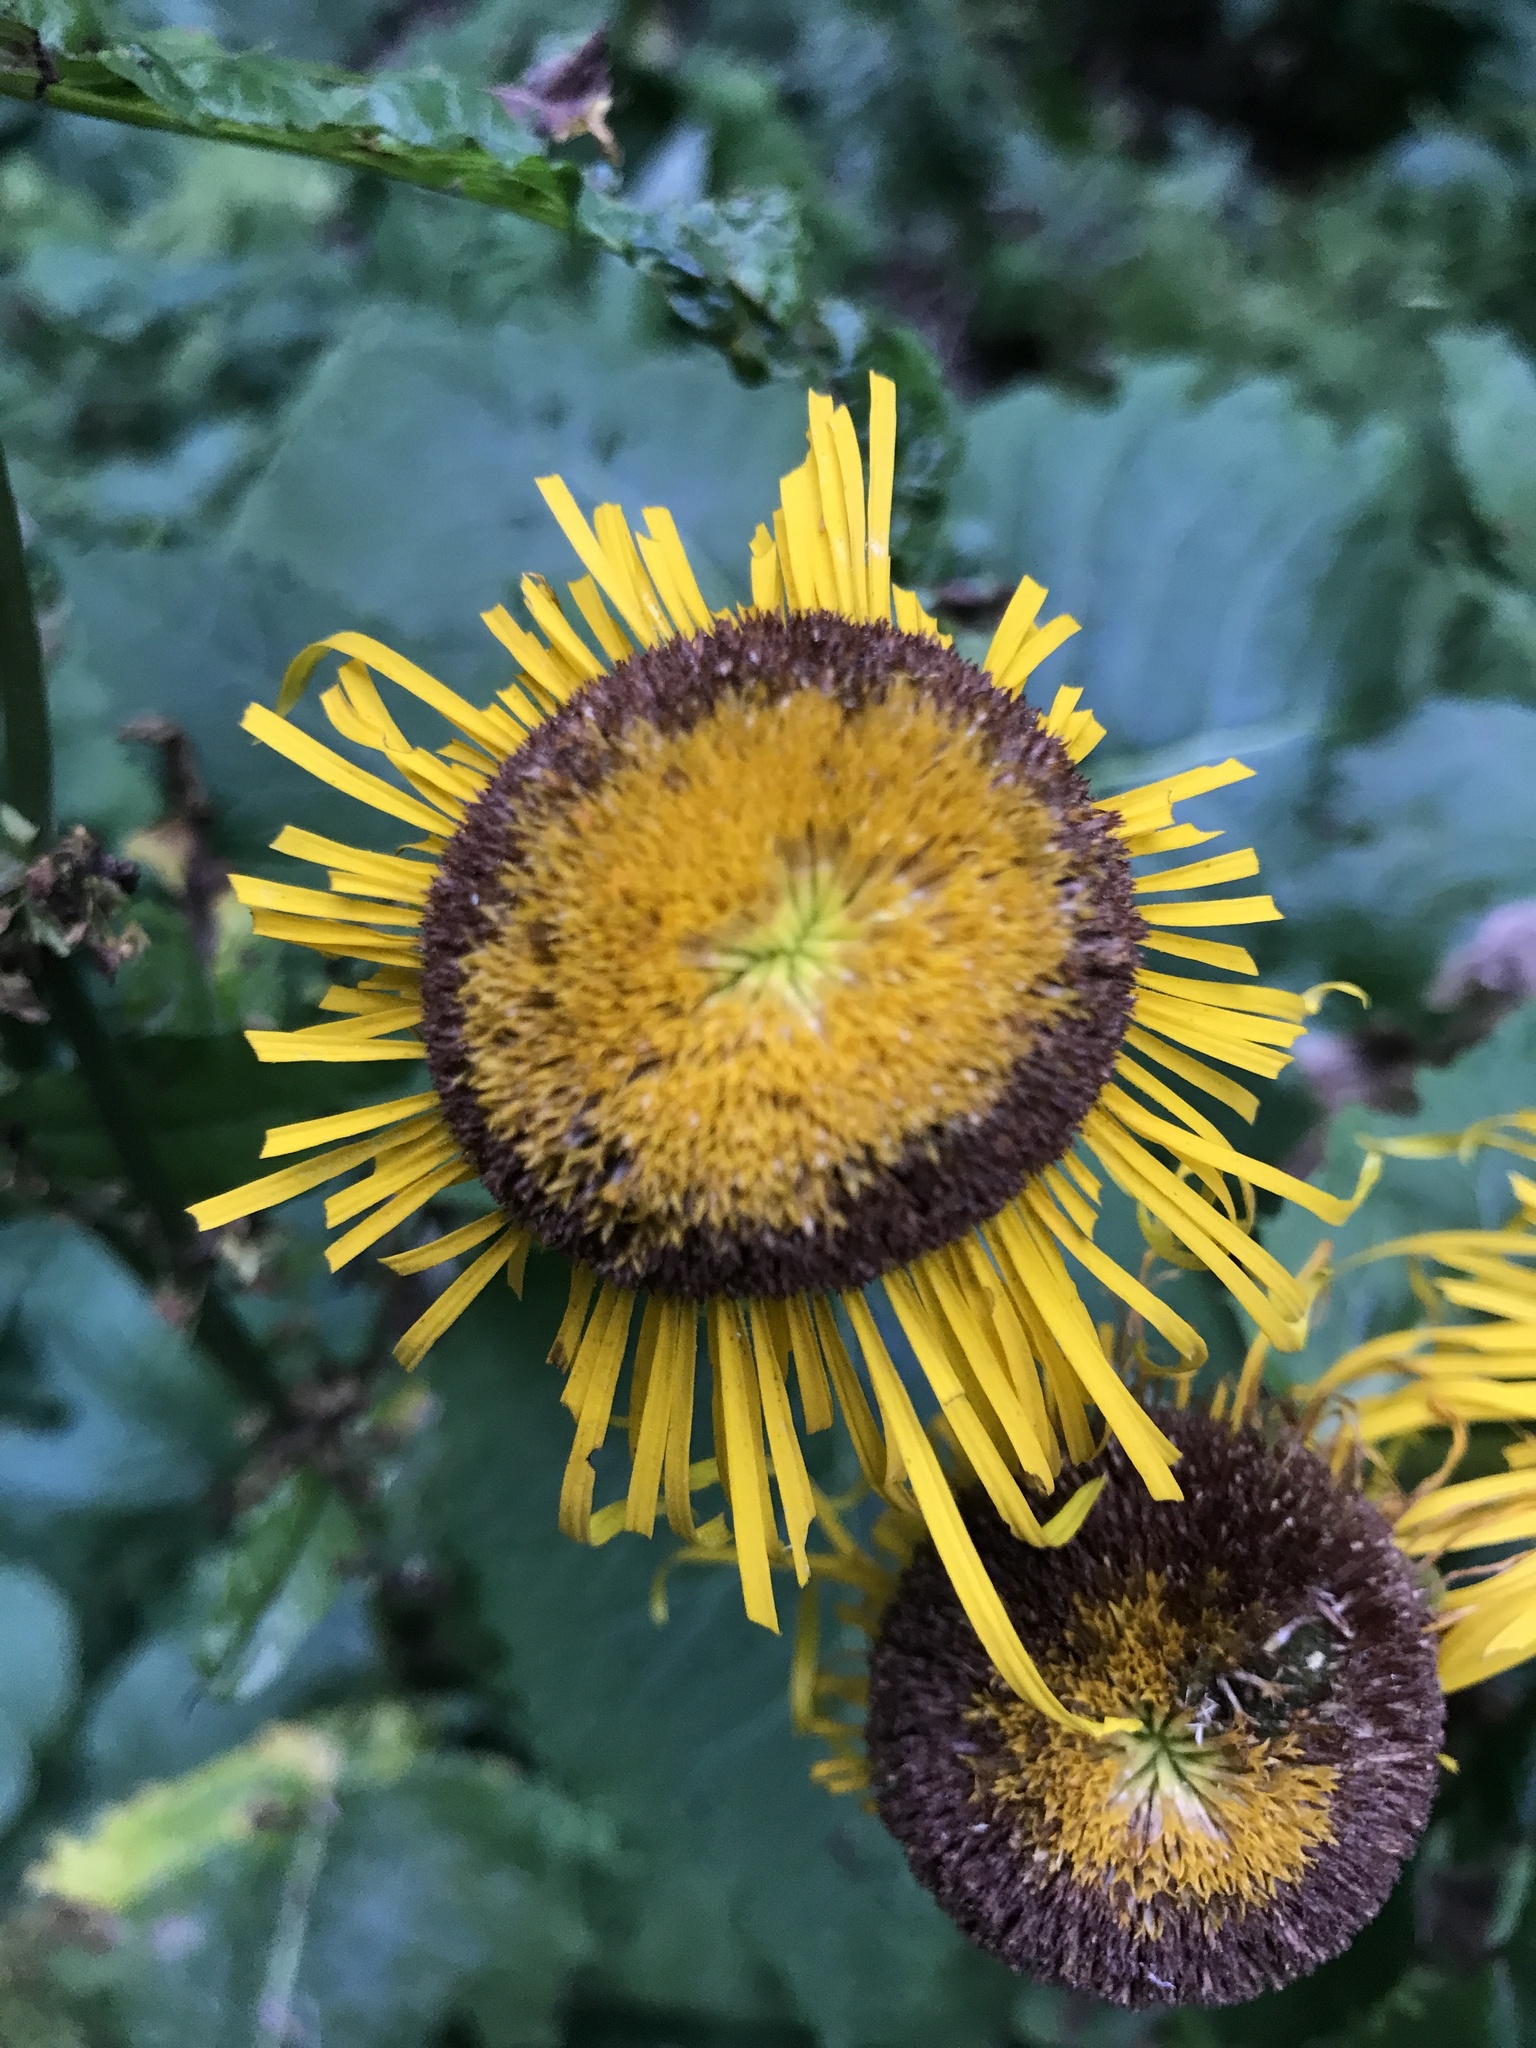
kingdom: Plantae
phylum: Tracheophyta
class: Magnoliopsida
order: Asterales
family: Asteraceae
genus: Telekia
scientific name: Telekia speciosa
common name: Yellow oxeye
